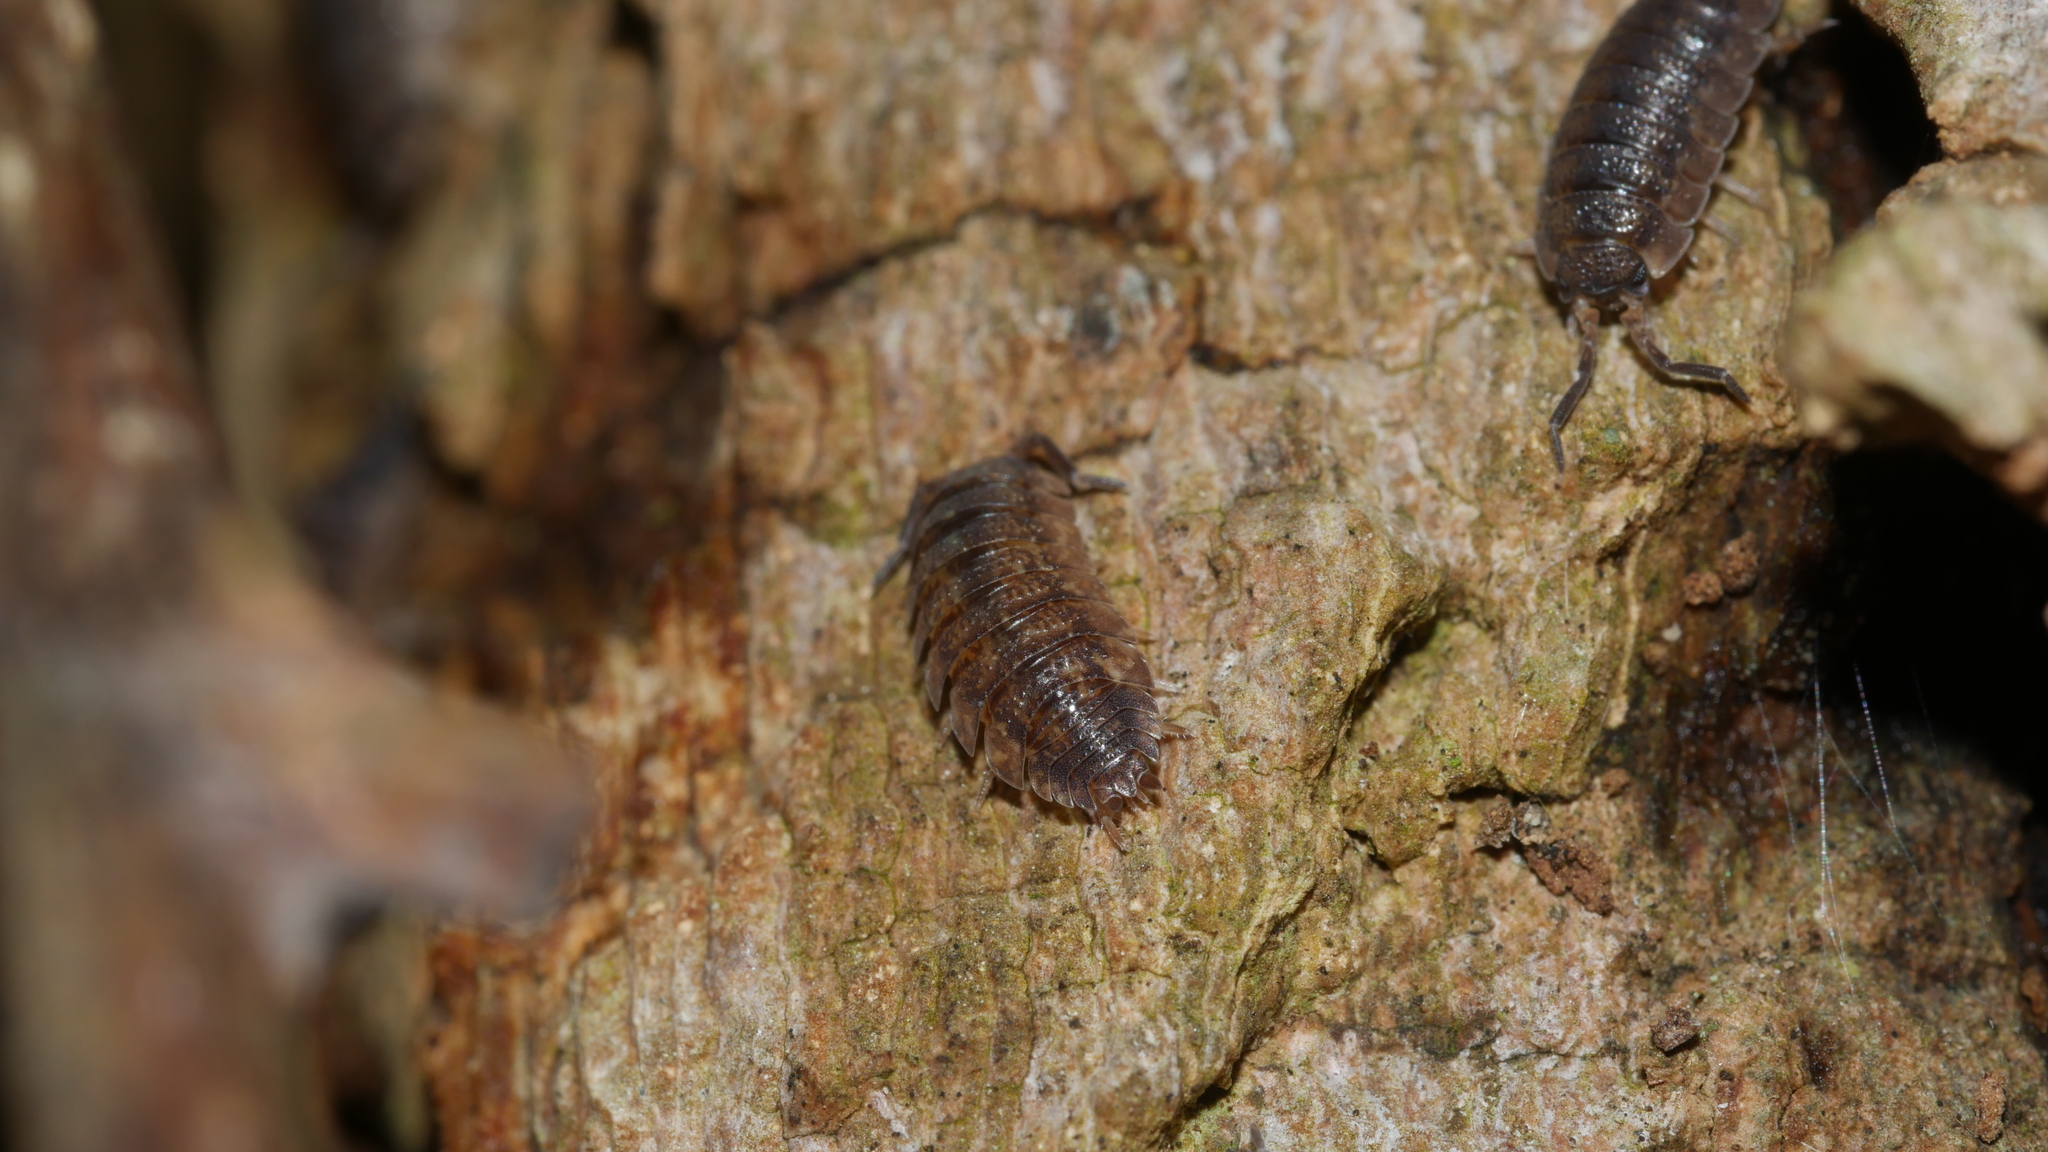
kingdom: Animalia
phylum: Arthropoda
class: Malacostraca
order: Isopoda
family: Porcellionidae
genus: Porcellio
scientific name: Porcellio scaber
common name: Common rough woodlouse
